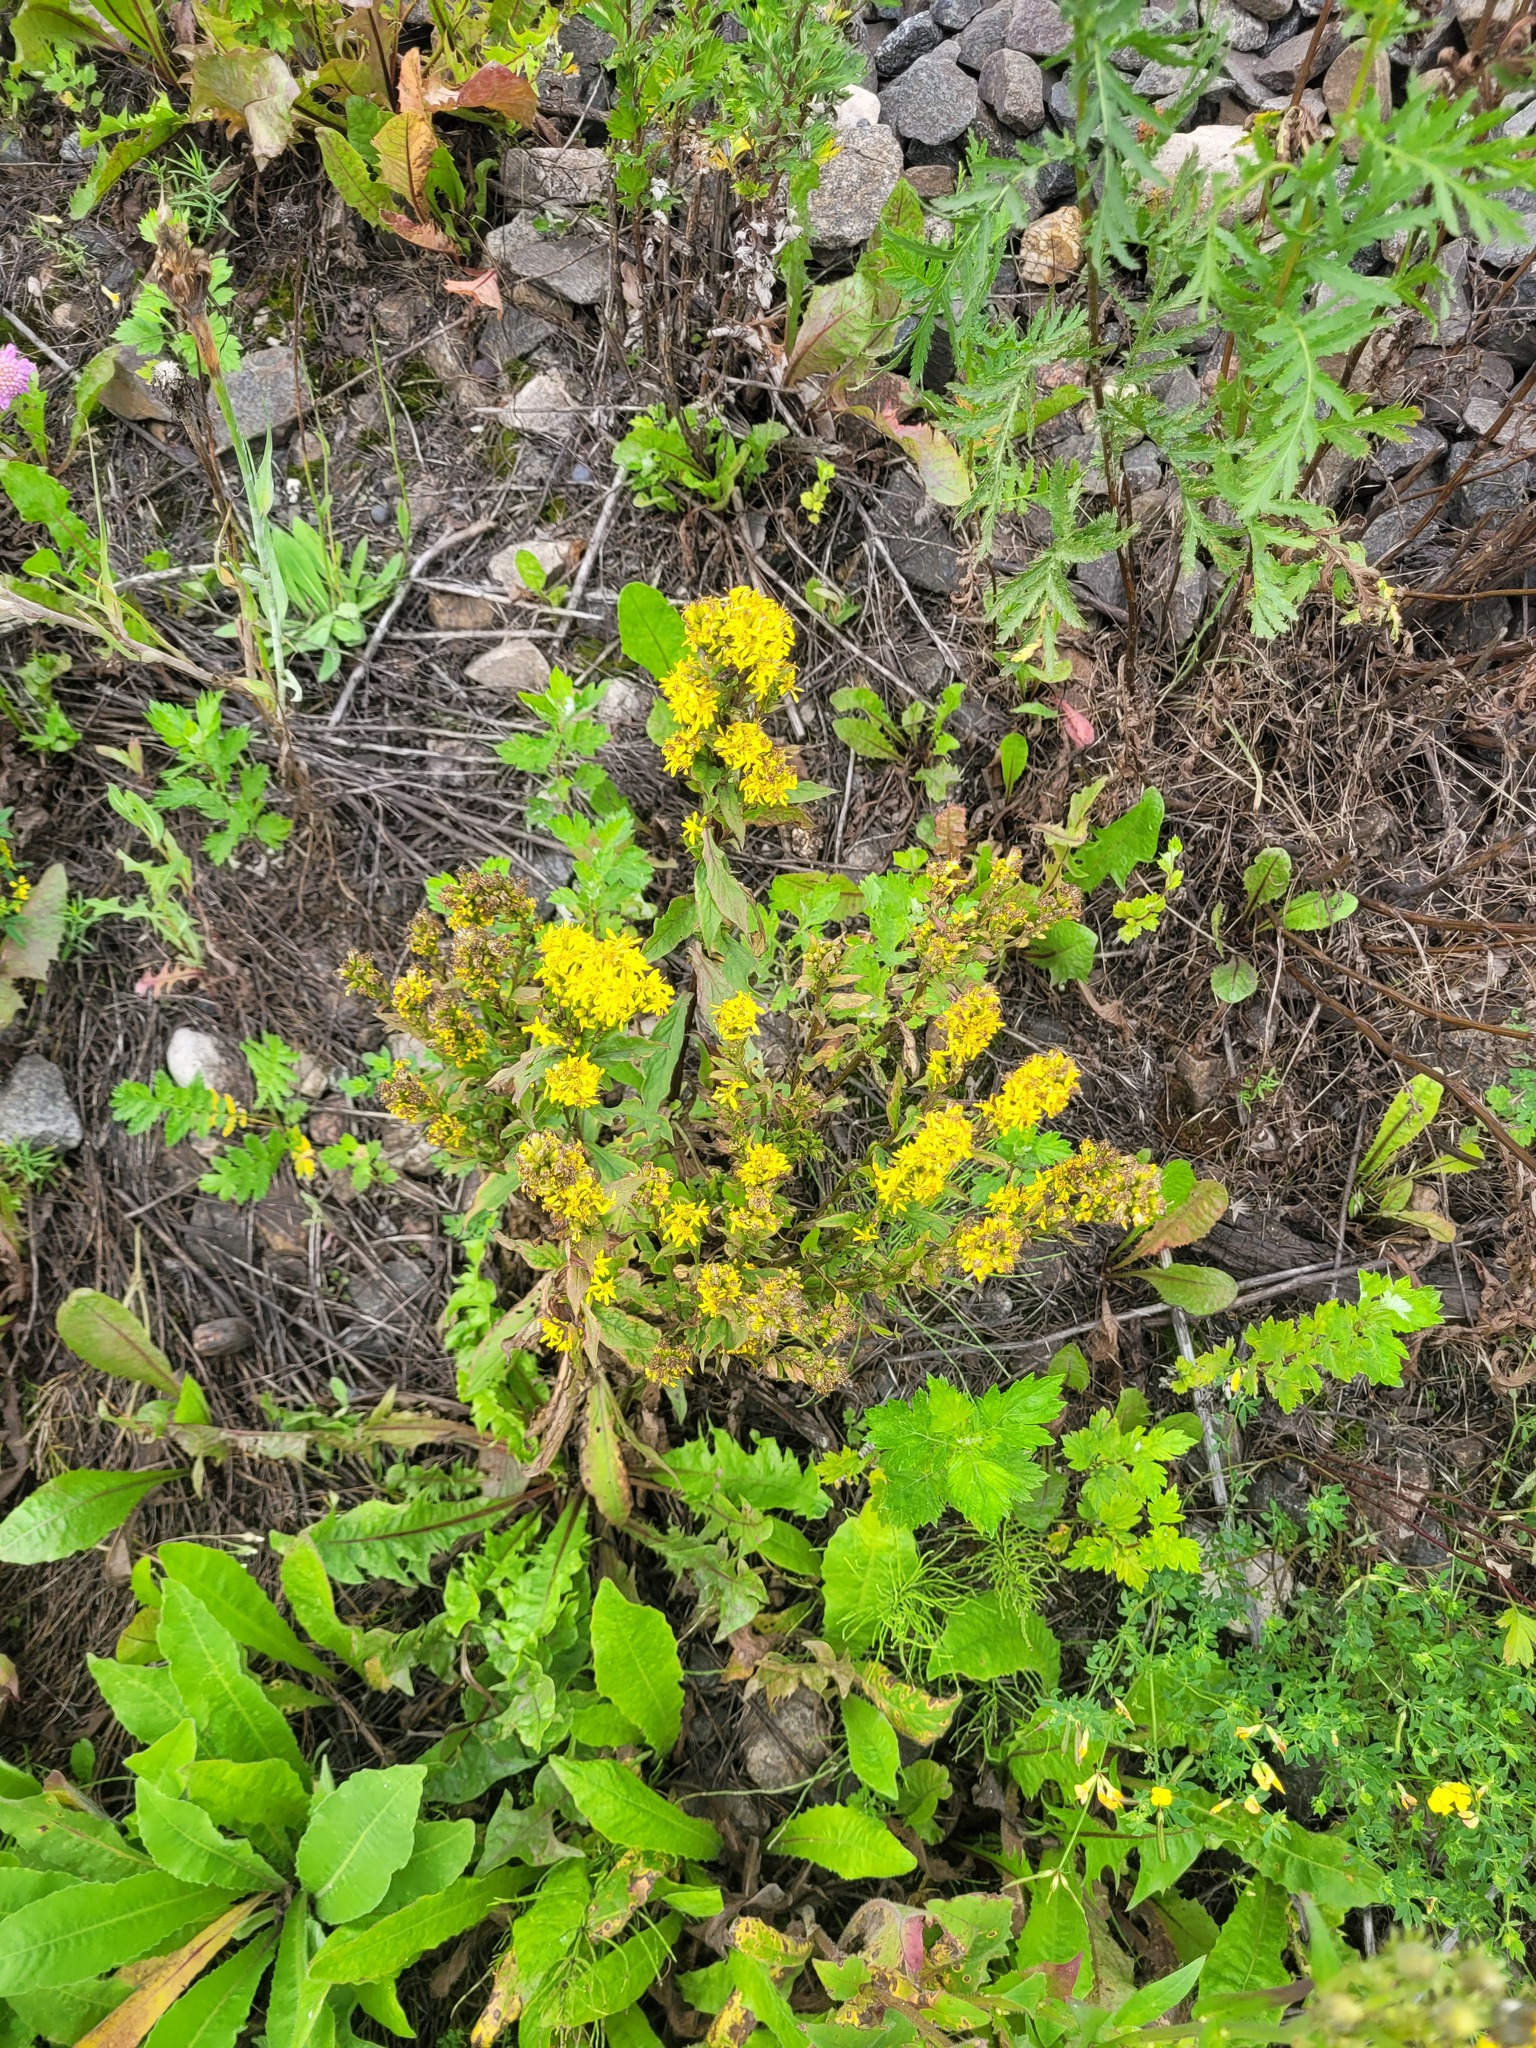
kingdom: Plantae
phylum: Tracheophyta
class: Magnoliopsida
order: Asterales
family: Asteraceae
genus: Solidago
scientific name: Solidago virgaurea
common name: Goldenrod
